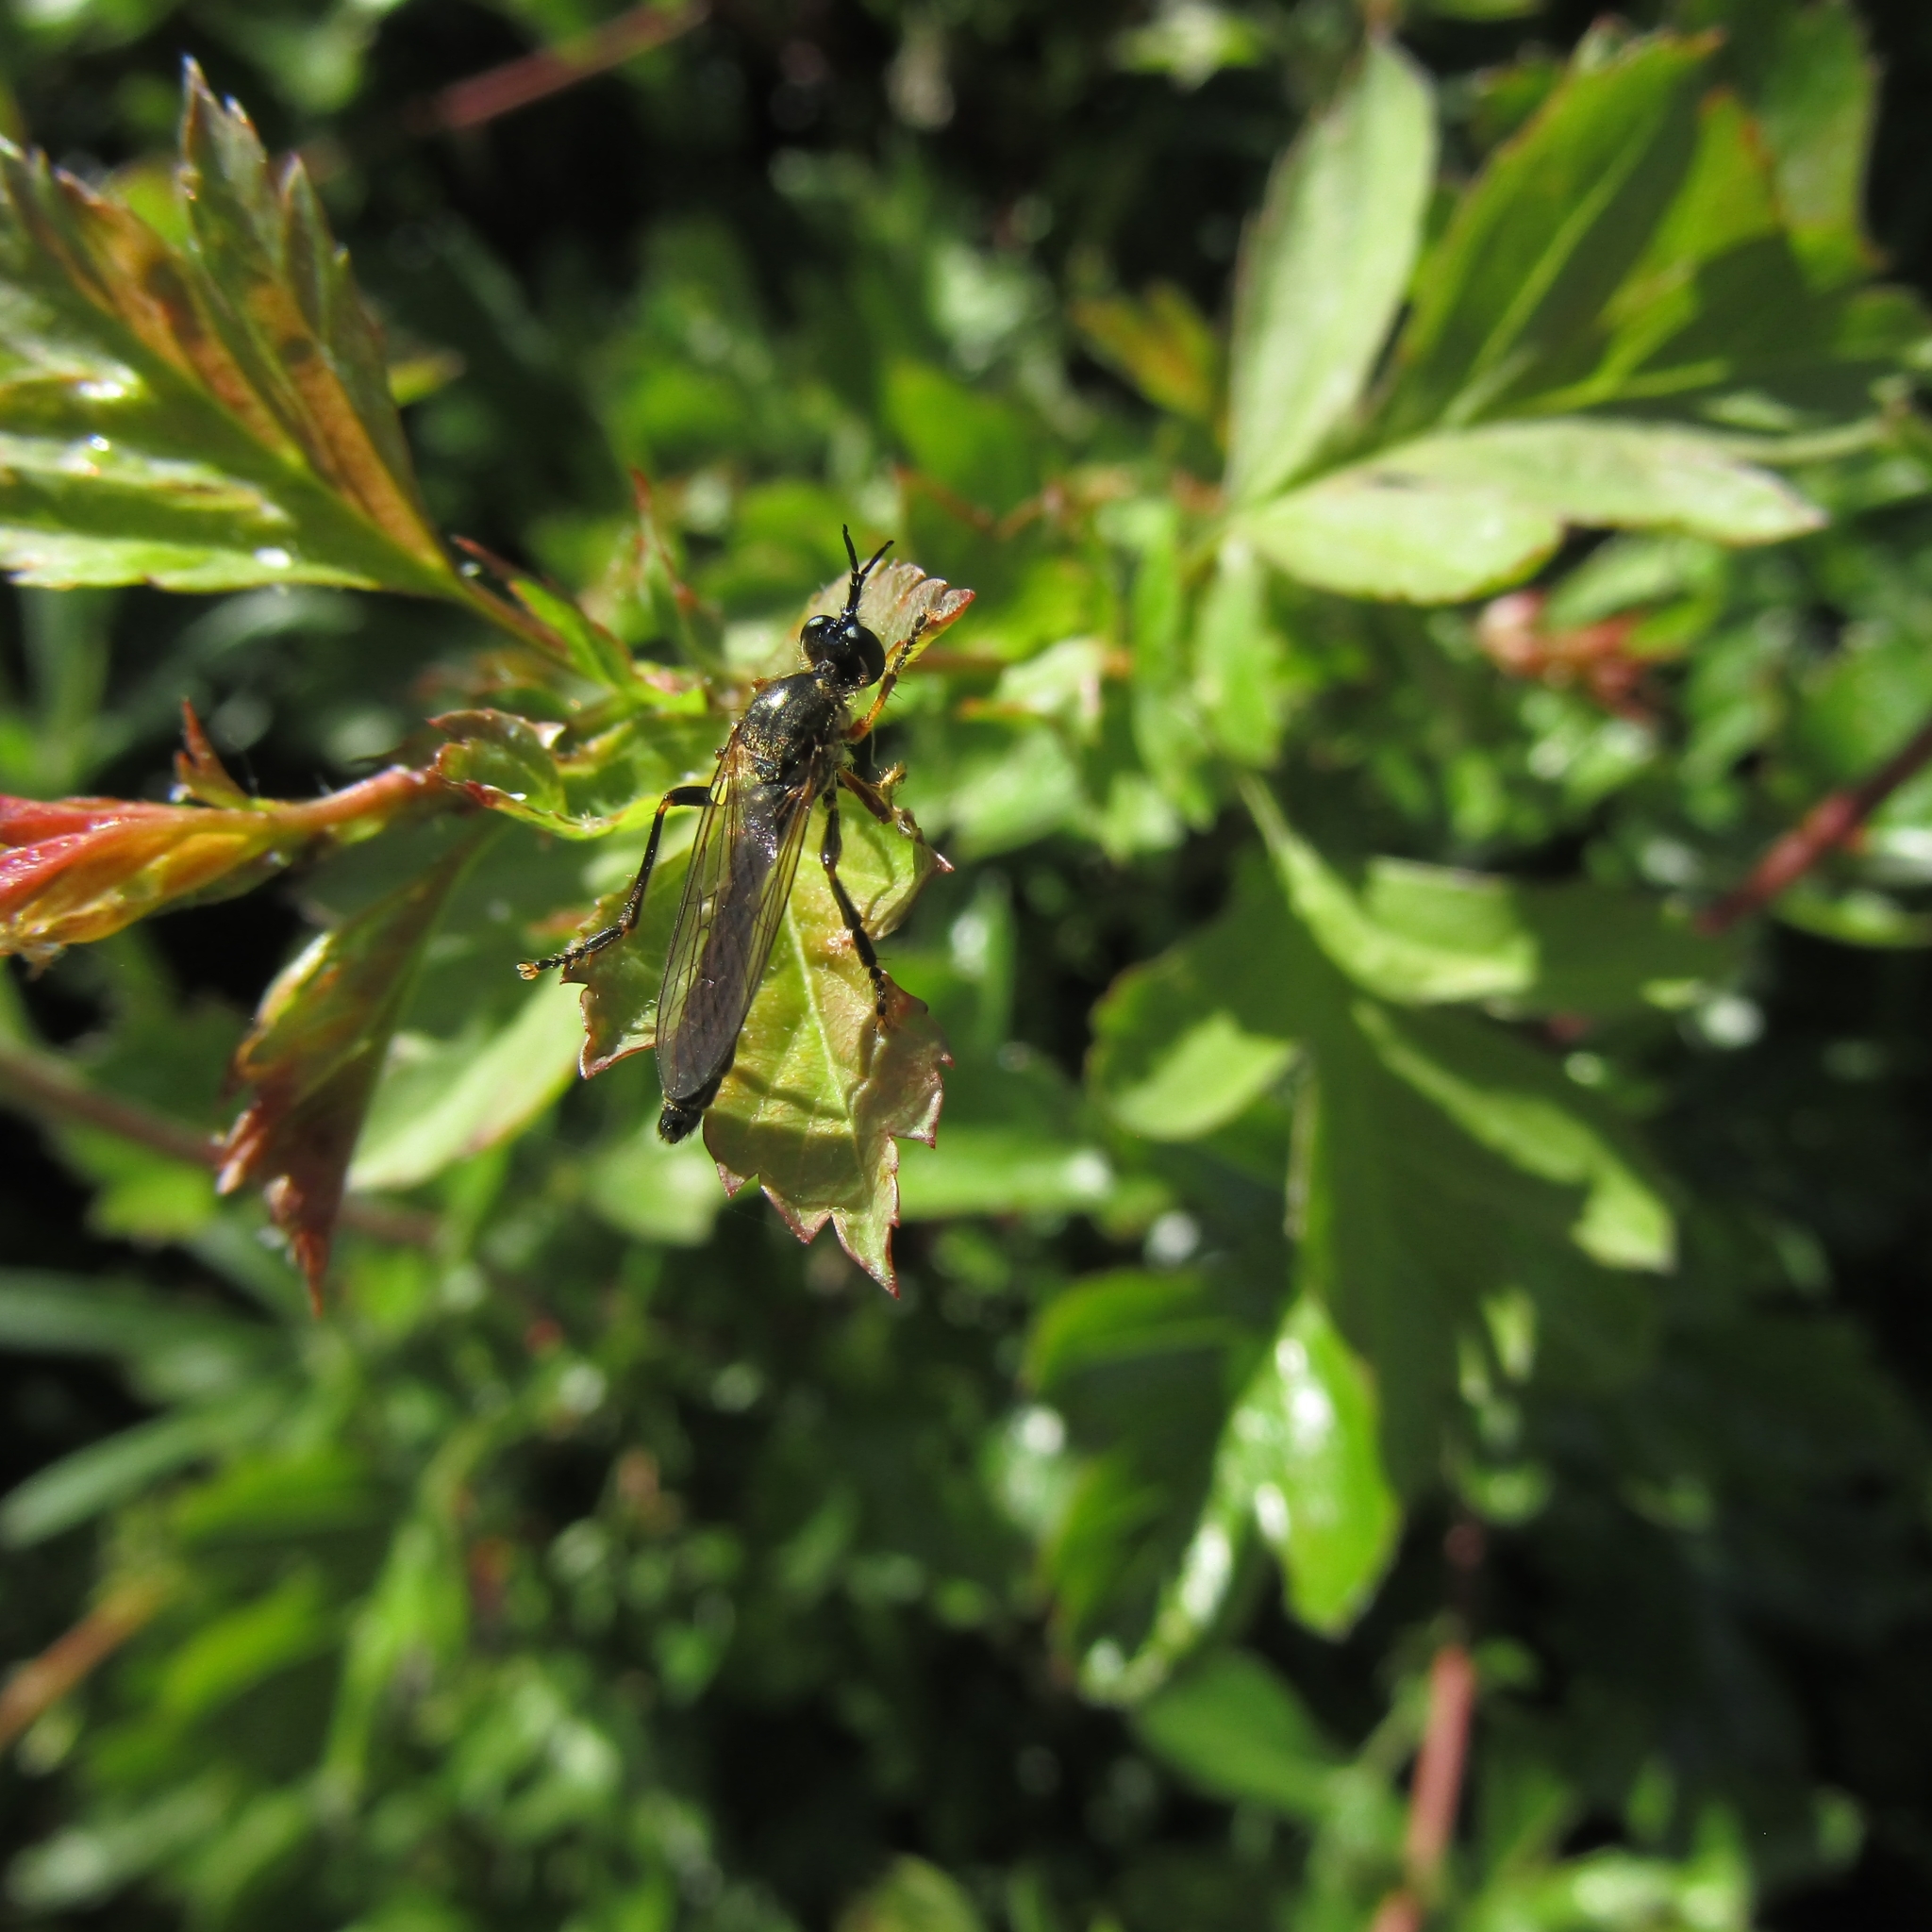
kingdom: Animalia
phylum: Arthropoda
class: Insecta
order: Diptera
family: Asilidae
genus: Dioctria
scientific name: Dioctria rufipes
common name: Common red-legged robberfly
